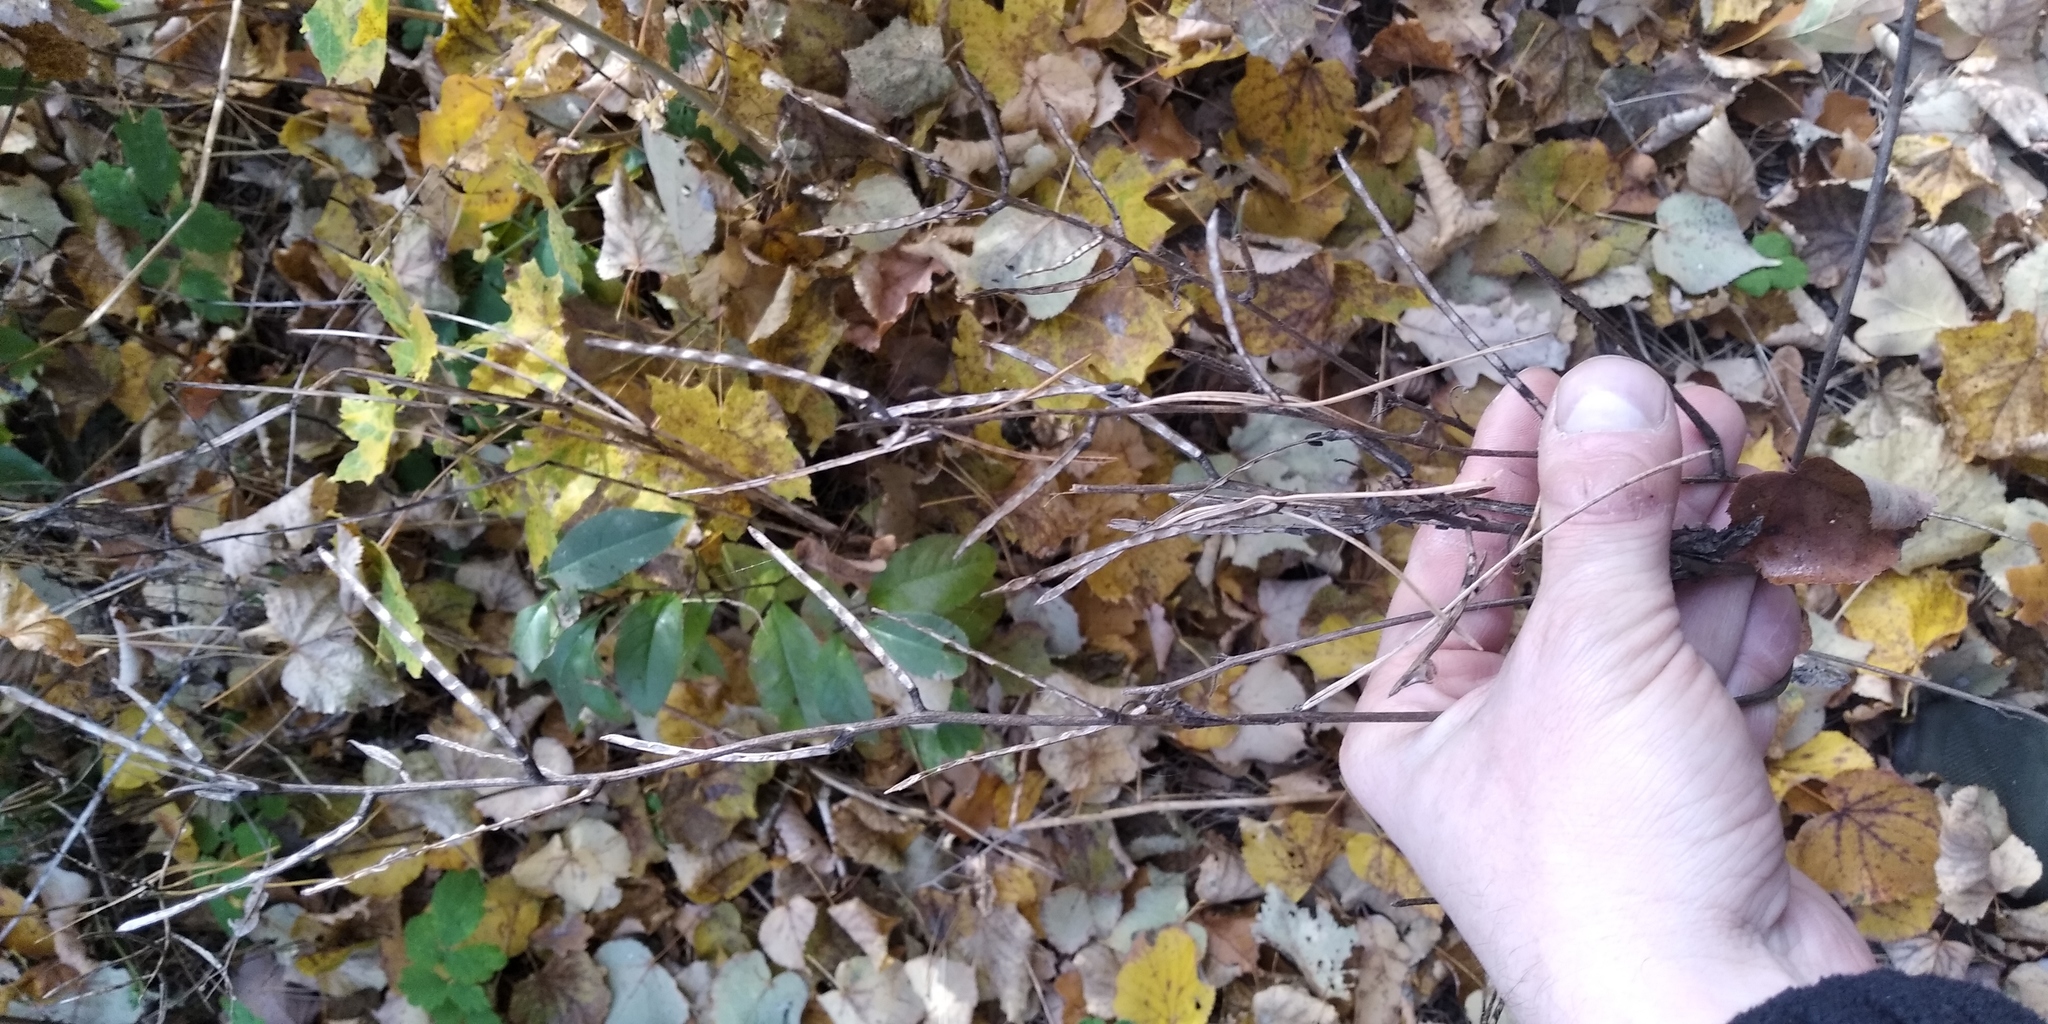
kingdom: Plantae
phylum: Tracheophyta
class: Magnoliopsida
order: Brassicales
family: Brassicaceae
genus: Alliaria
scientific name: Alliaria petiolata
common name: Garlic mustard
